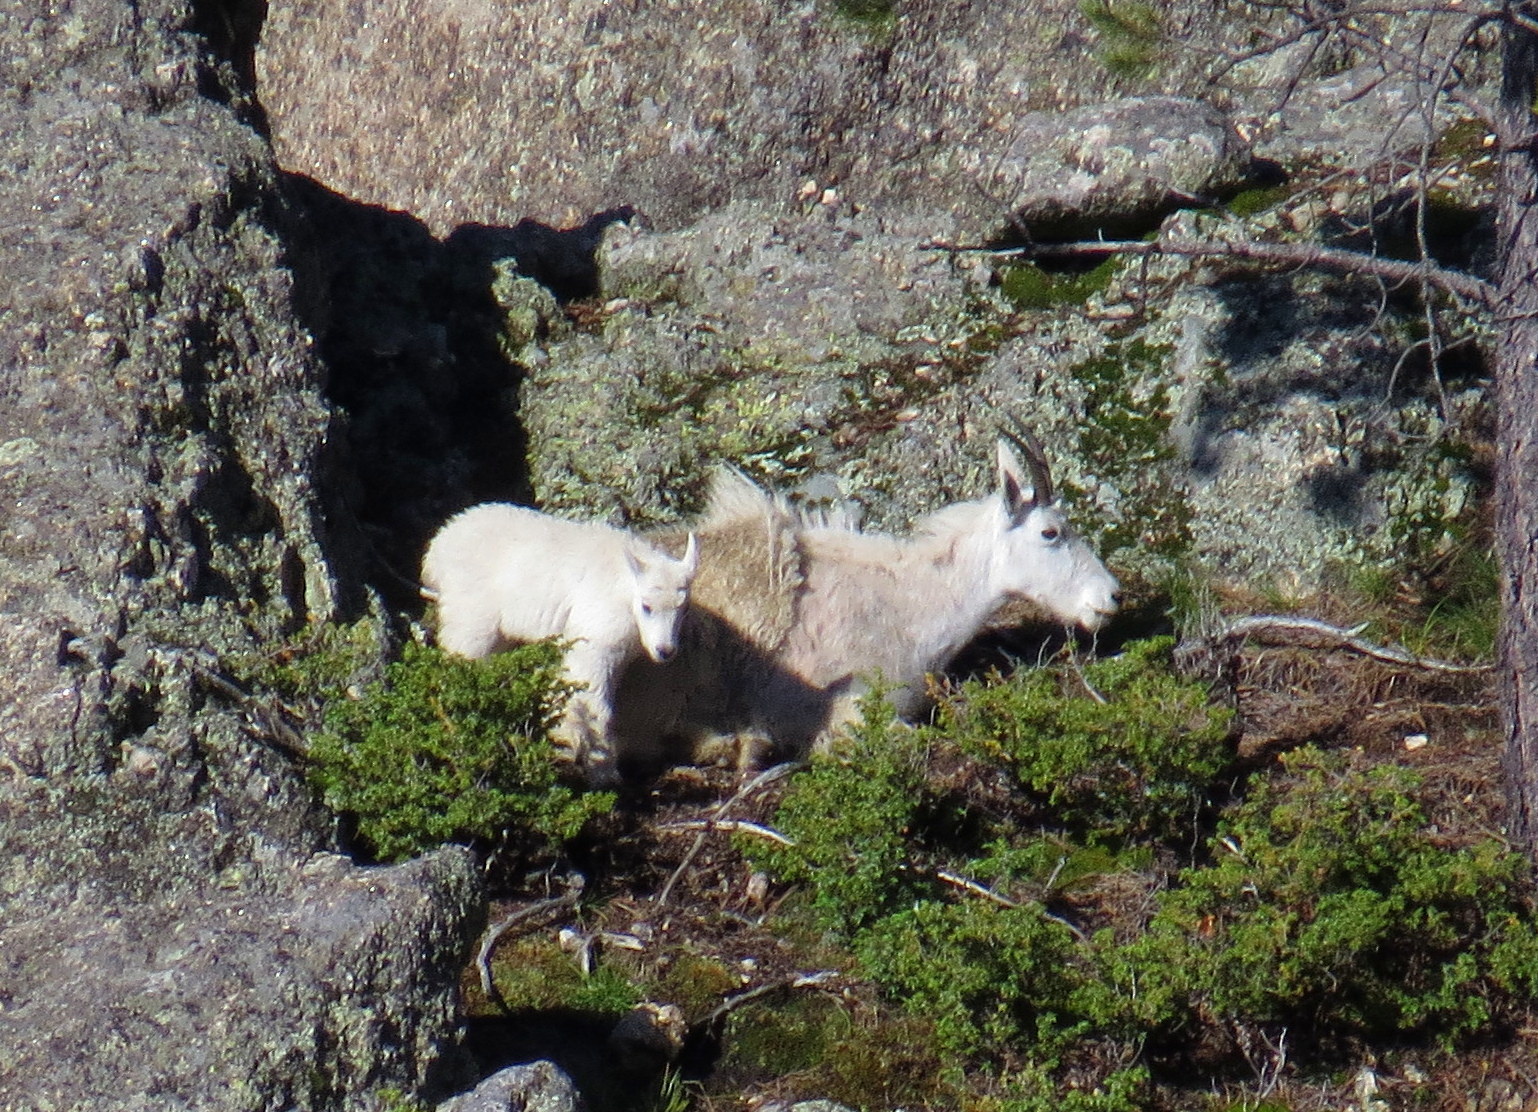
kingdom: Animalia
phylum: Chordata
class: Mammalia
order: Artiodactyla
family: Bovidae
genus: Oreamnos
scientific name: Oreamnos americanus
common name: Mountain goat
